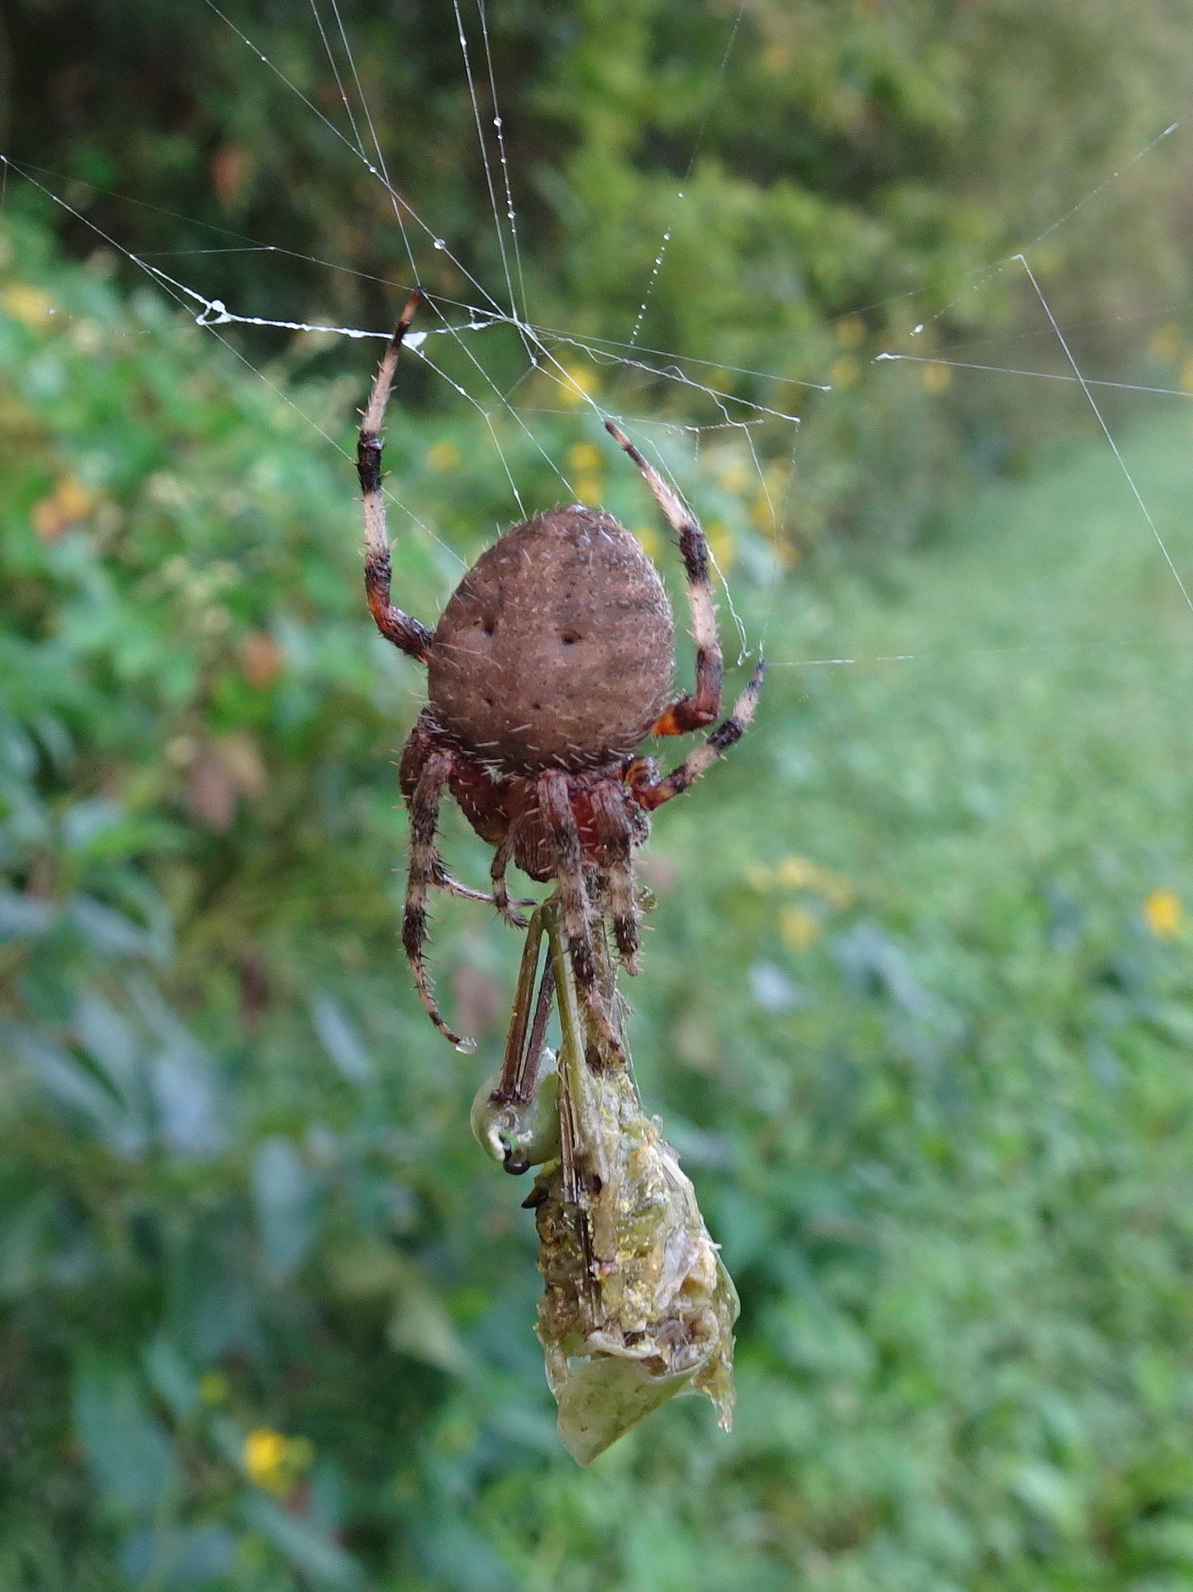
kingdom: Animalia
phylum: Arthropoda
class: Arachnida
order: Araneae
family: Araneidae
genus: Neoscona
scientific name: Neoscona crucifera
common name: Spotted orbweaver
